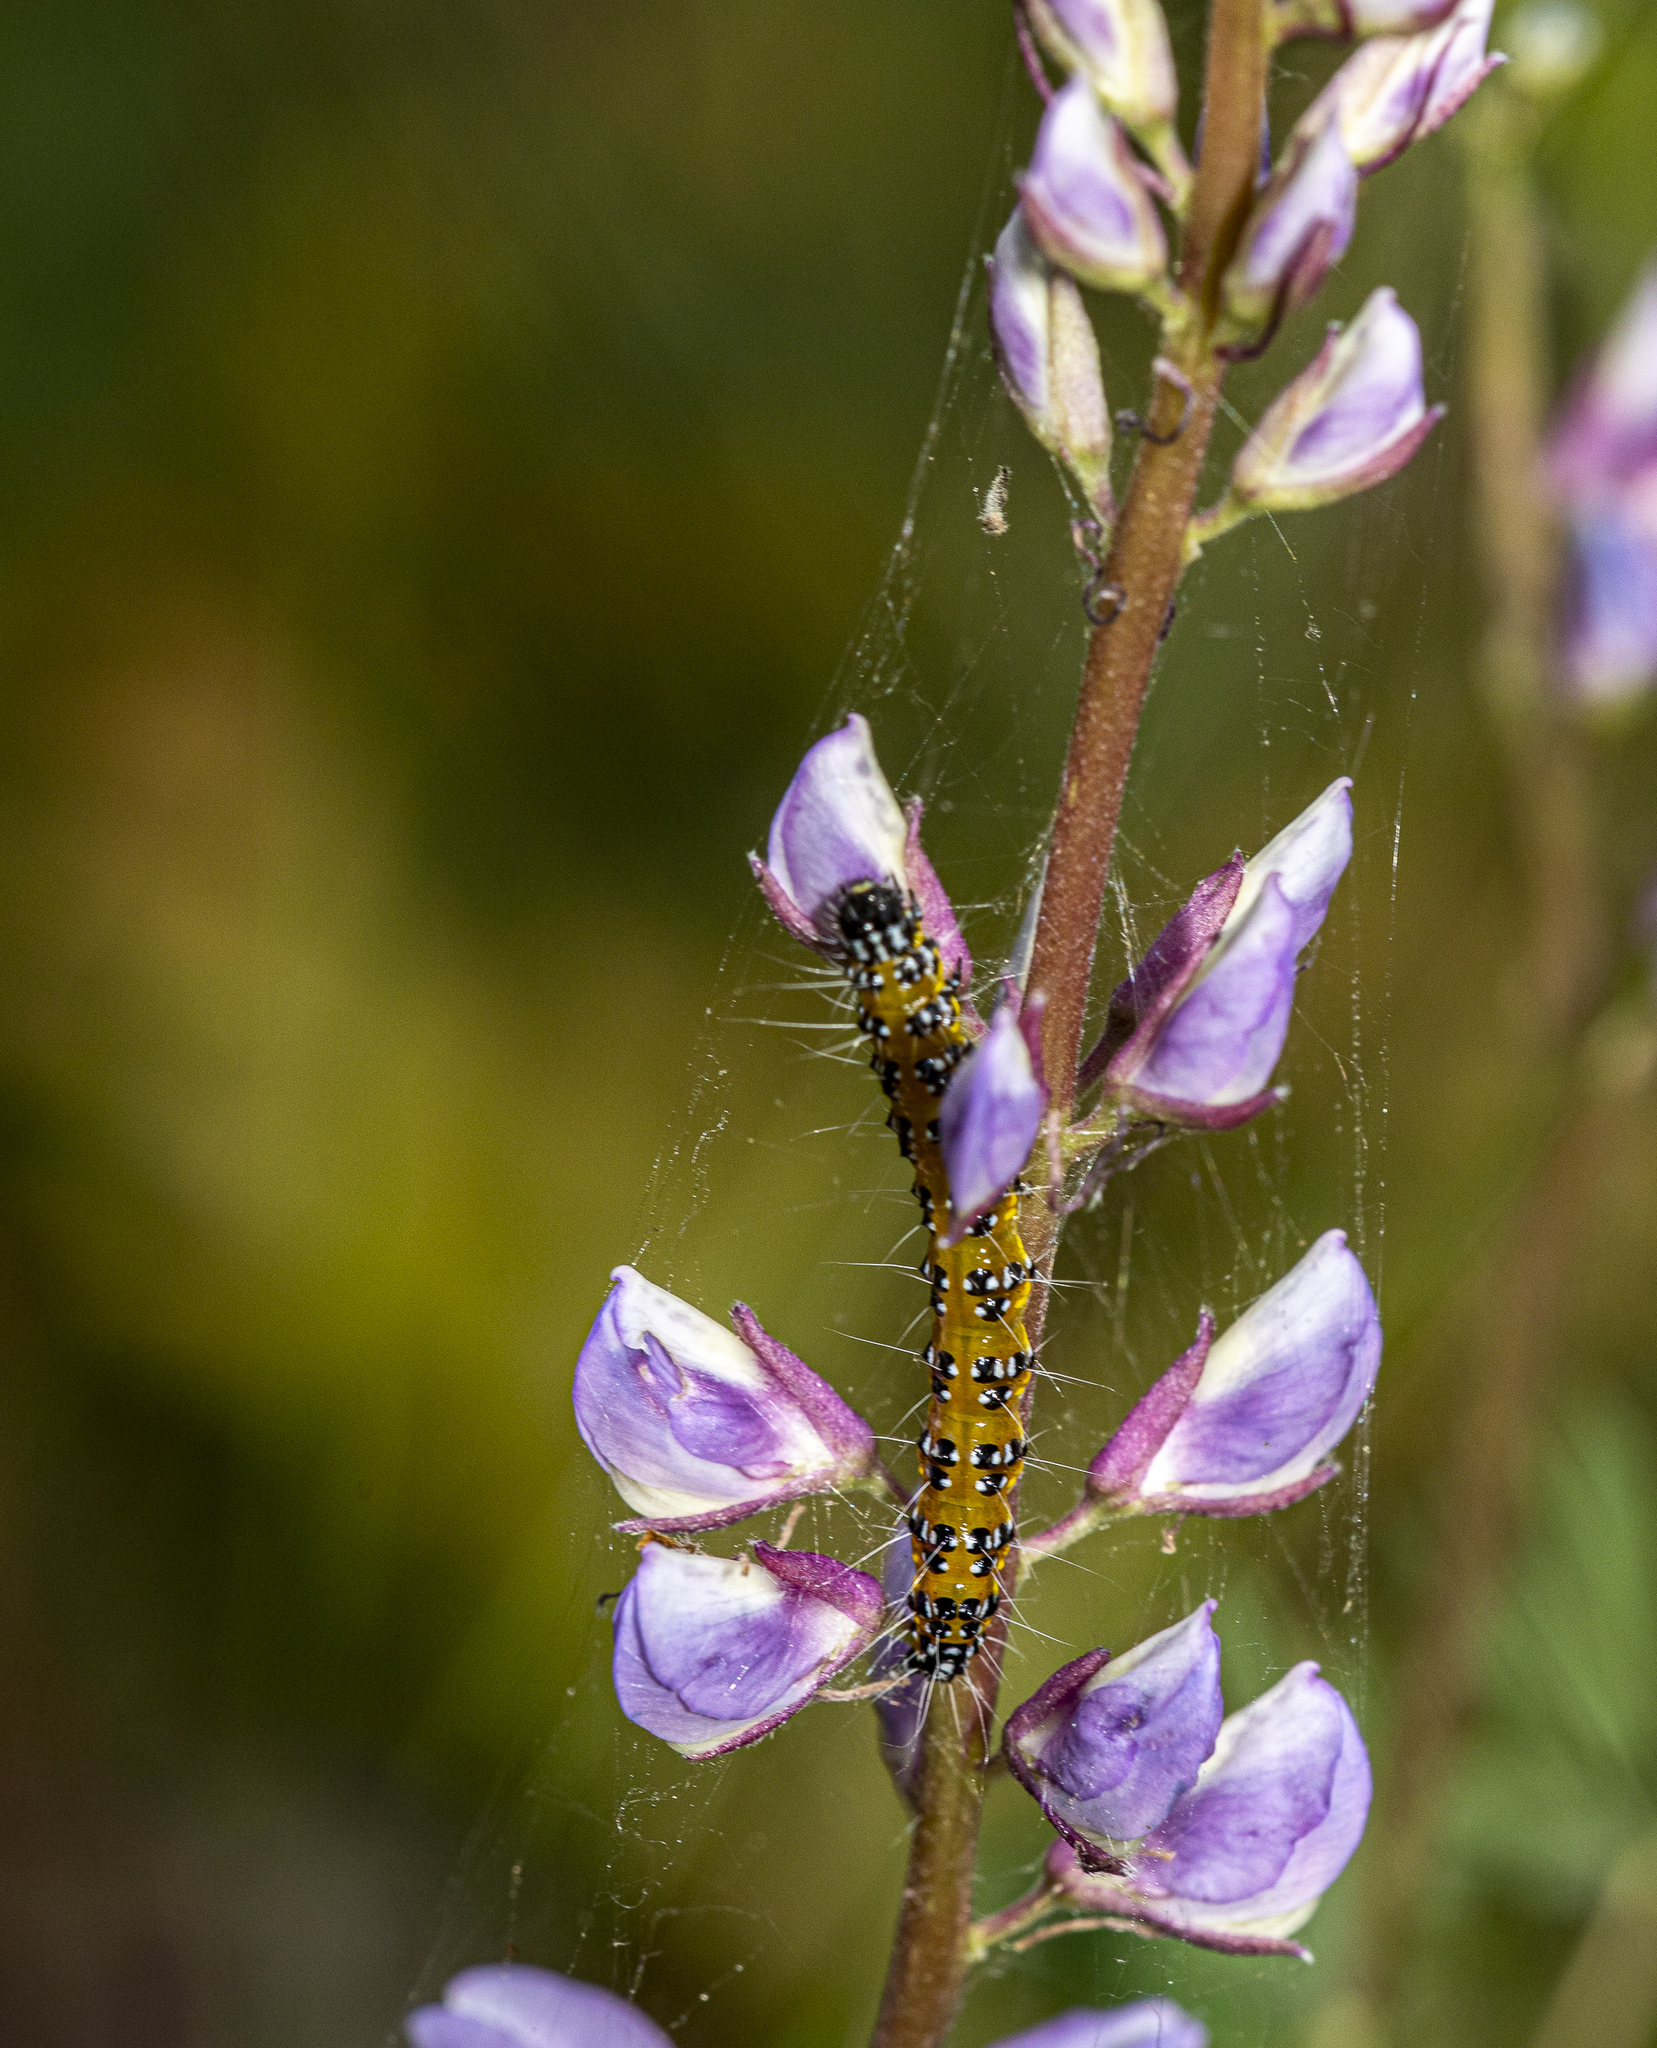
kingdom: Animalia
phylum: Arthropoda
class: Insecta
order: Lepidoptera
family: Crambidae
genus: Uresiphita
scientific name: Uresiphita reversalis
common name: Genista broom moth
